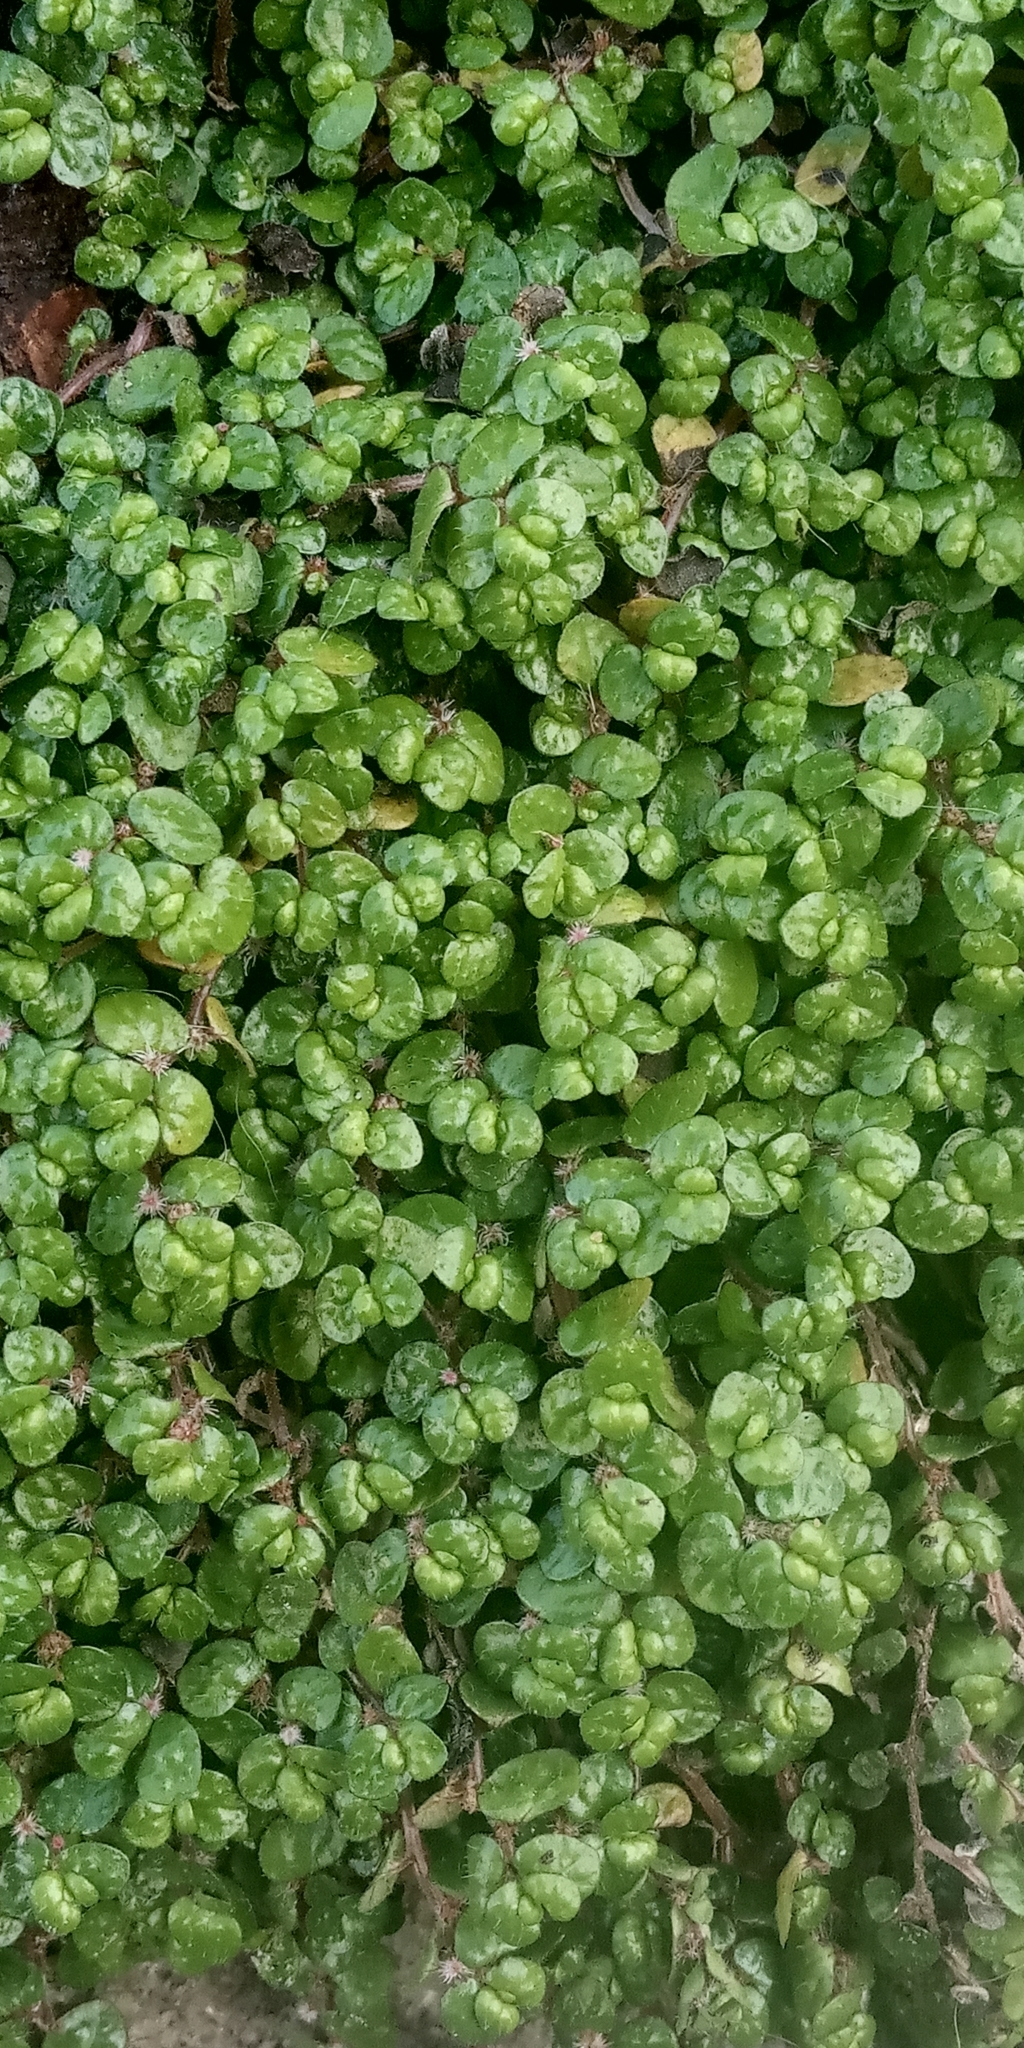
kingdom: Plantae
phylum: Tracheophyta
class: Magnoliopsida
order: Rosales
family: Urticaceae
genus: Soleirolia
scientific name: Soleirolia soleirolii
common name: Mind-your-own-business
